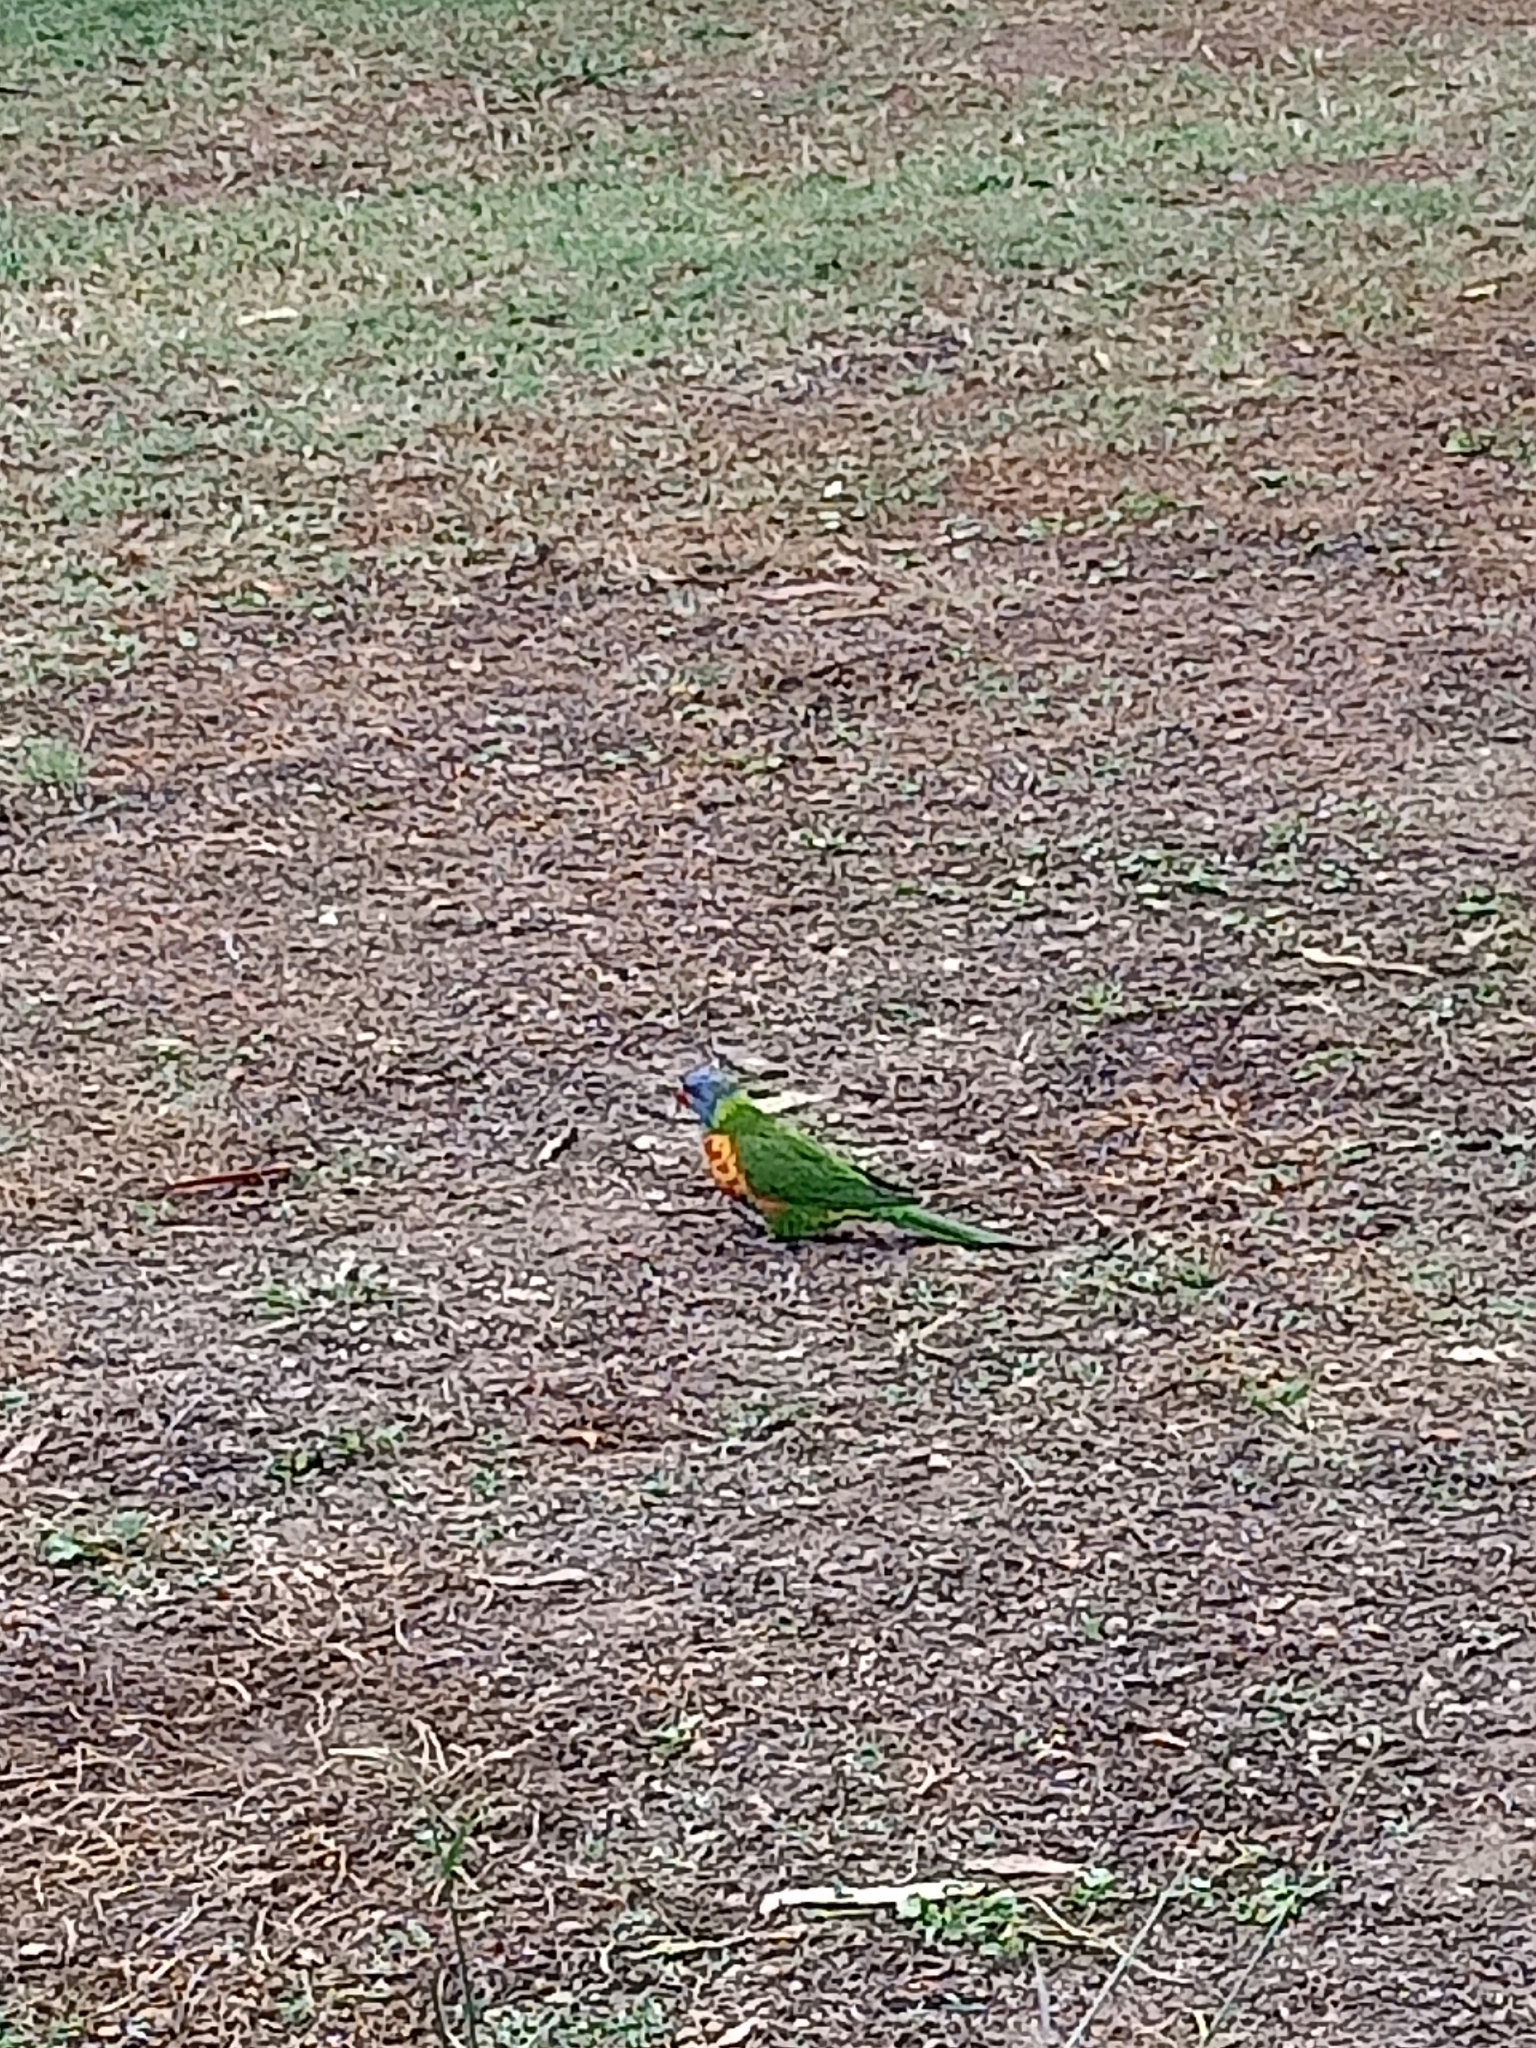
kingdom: Animalia
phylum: Chordata
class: Aves
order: Psittaciformes
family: Psittacidae
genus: Trichoglossus
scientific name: Trichoglossus haematodus
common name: Coconut lorikeet
